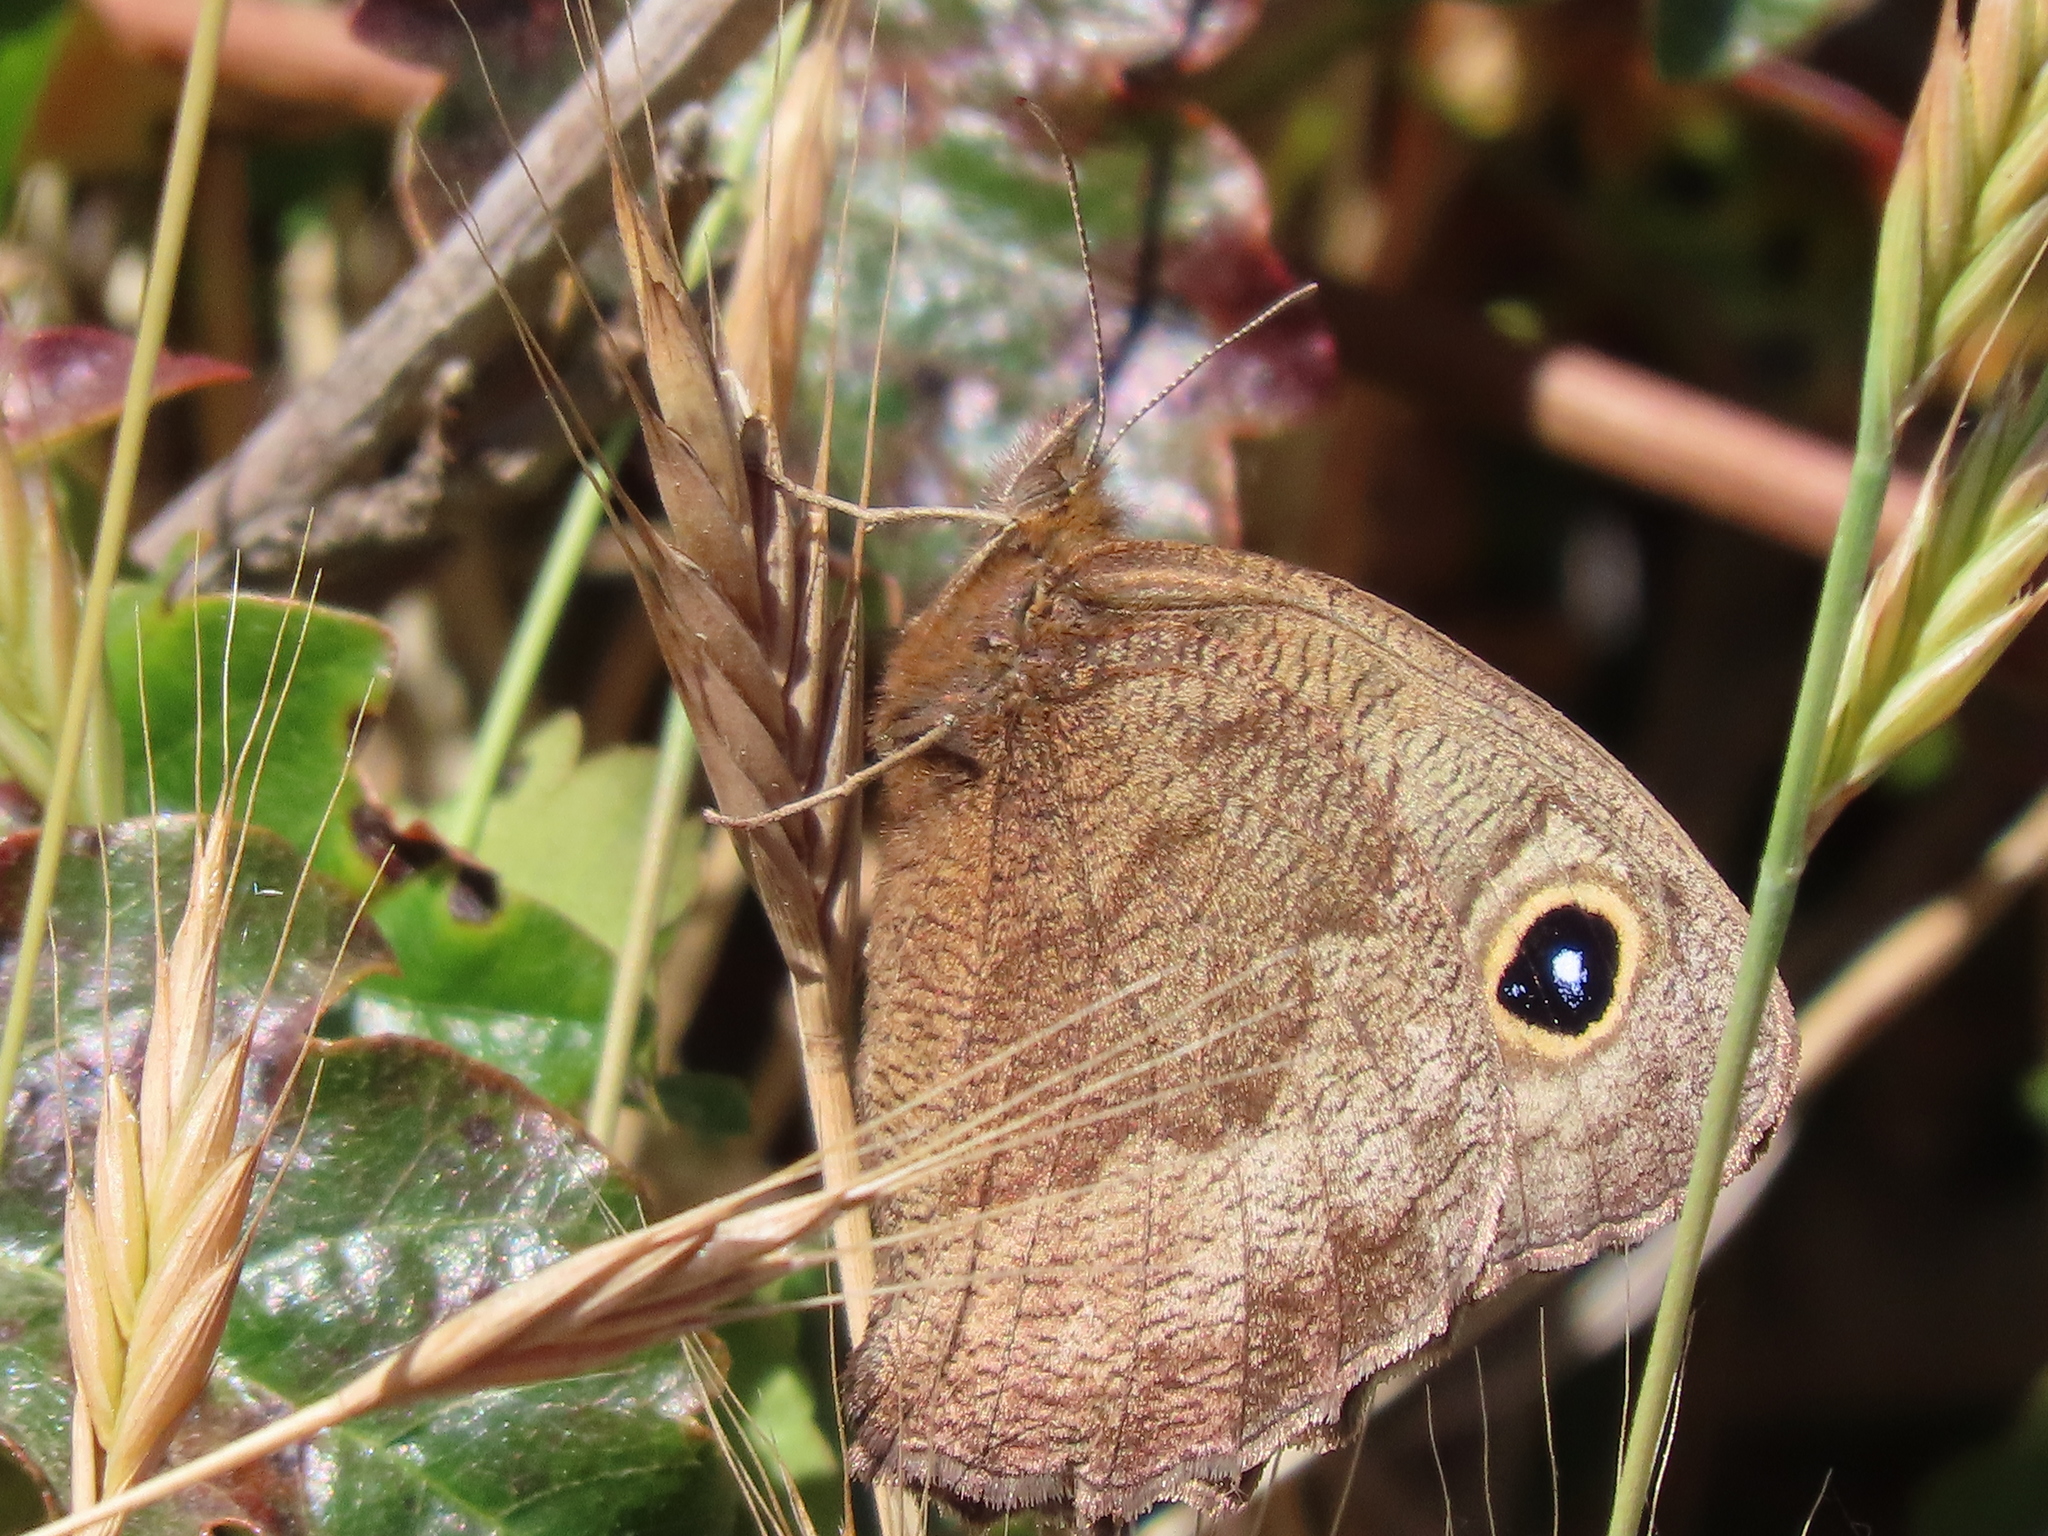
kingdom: Animalia
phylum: Arthropoda
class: Insecta
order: Lepidoptera
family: Nymphalidae
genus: Cercyonis
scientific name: Cercyonis pegala
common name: Common wood-nymph
